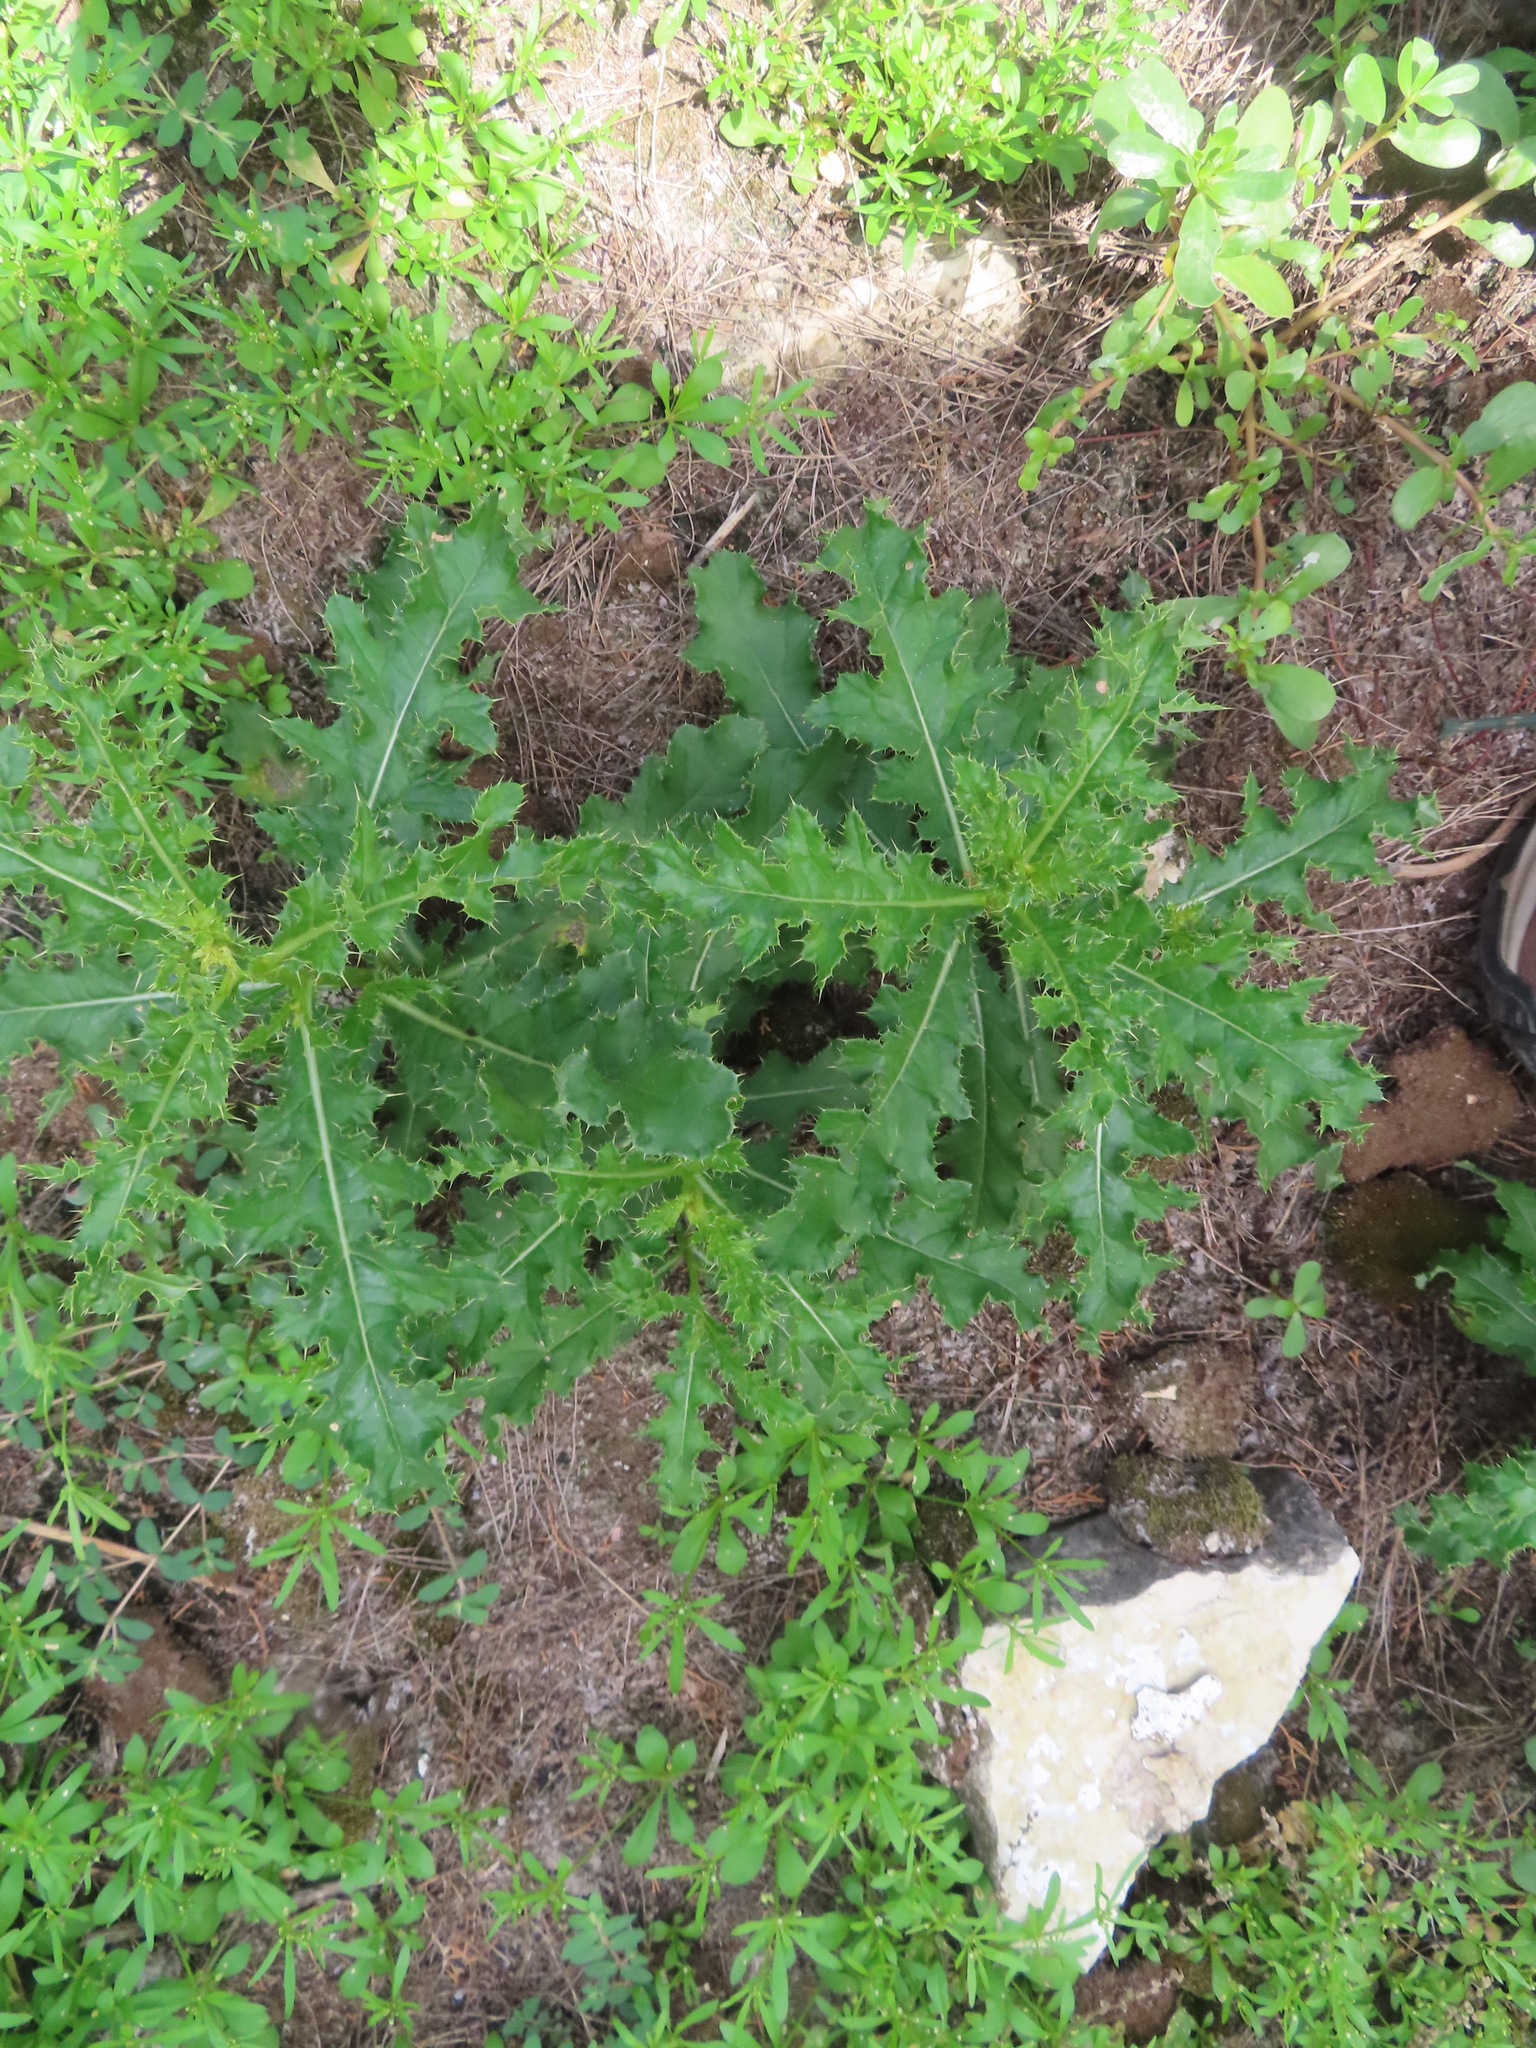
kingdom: Plantae
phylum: Tracheophyta
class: Magnoliopsida
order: Asterales
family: Asteraceae
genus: Cirsium
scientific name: Cirsium arvense
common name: Creeping thistle
